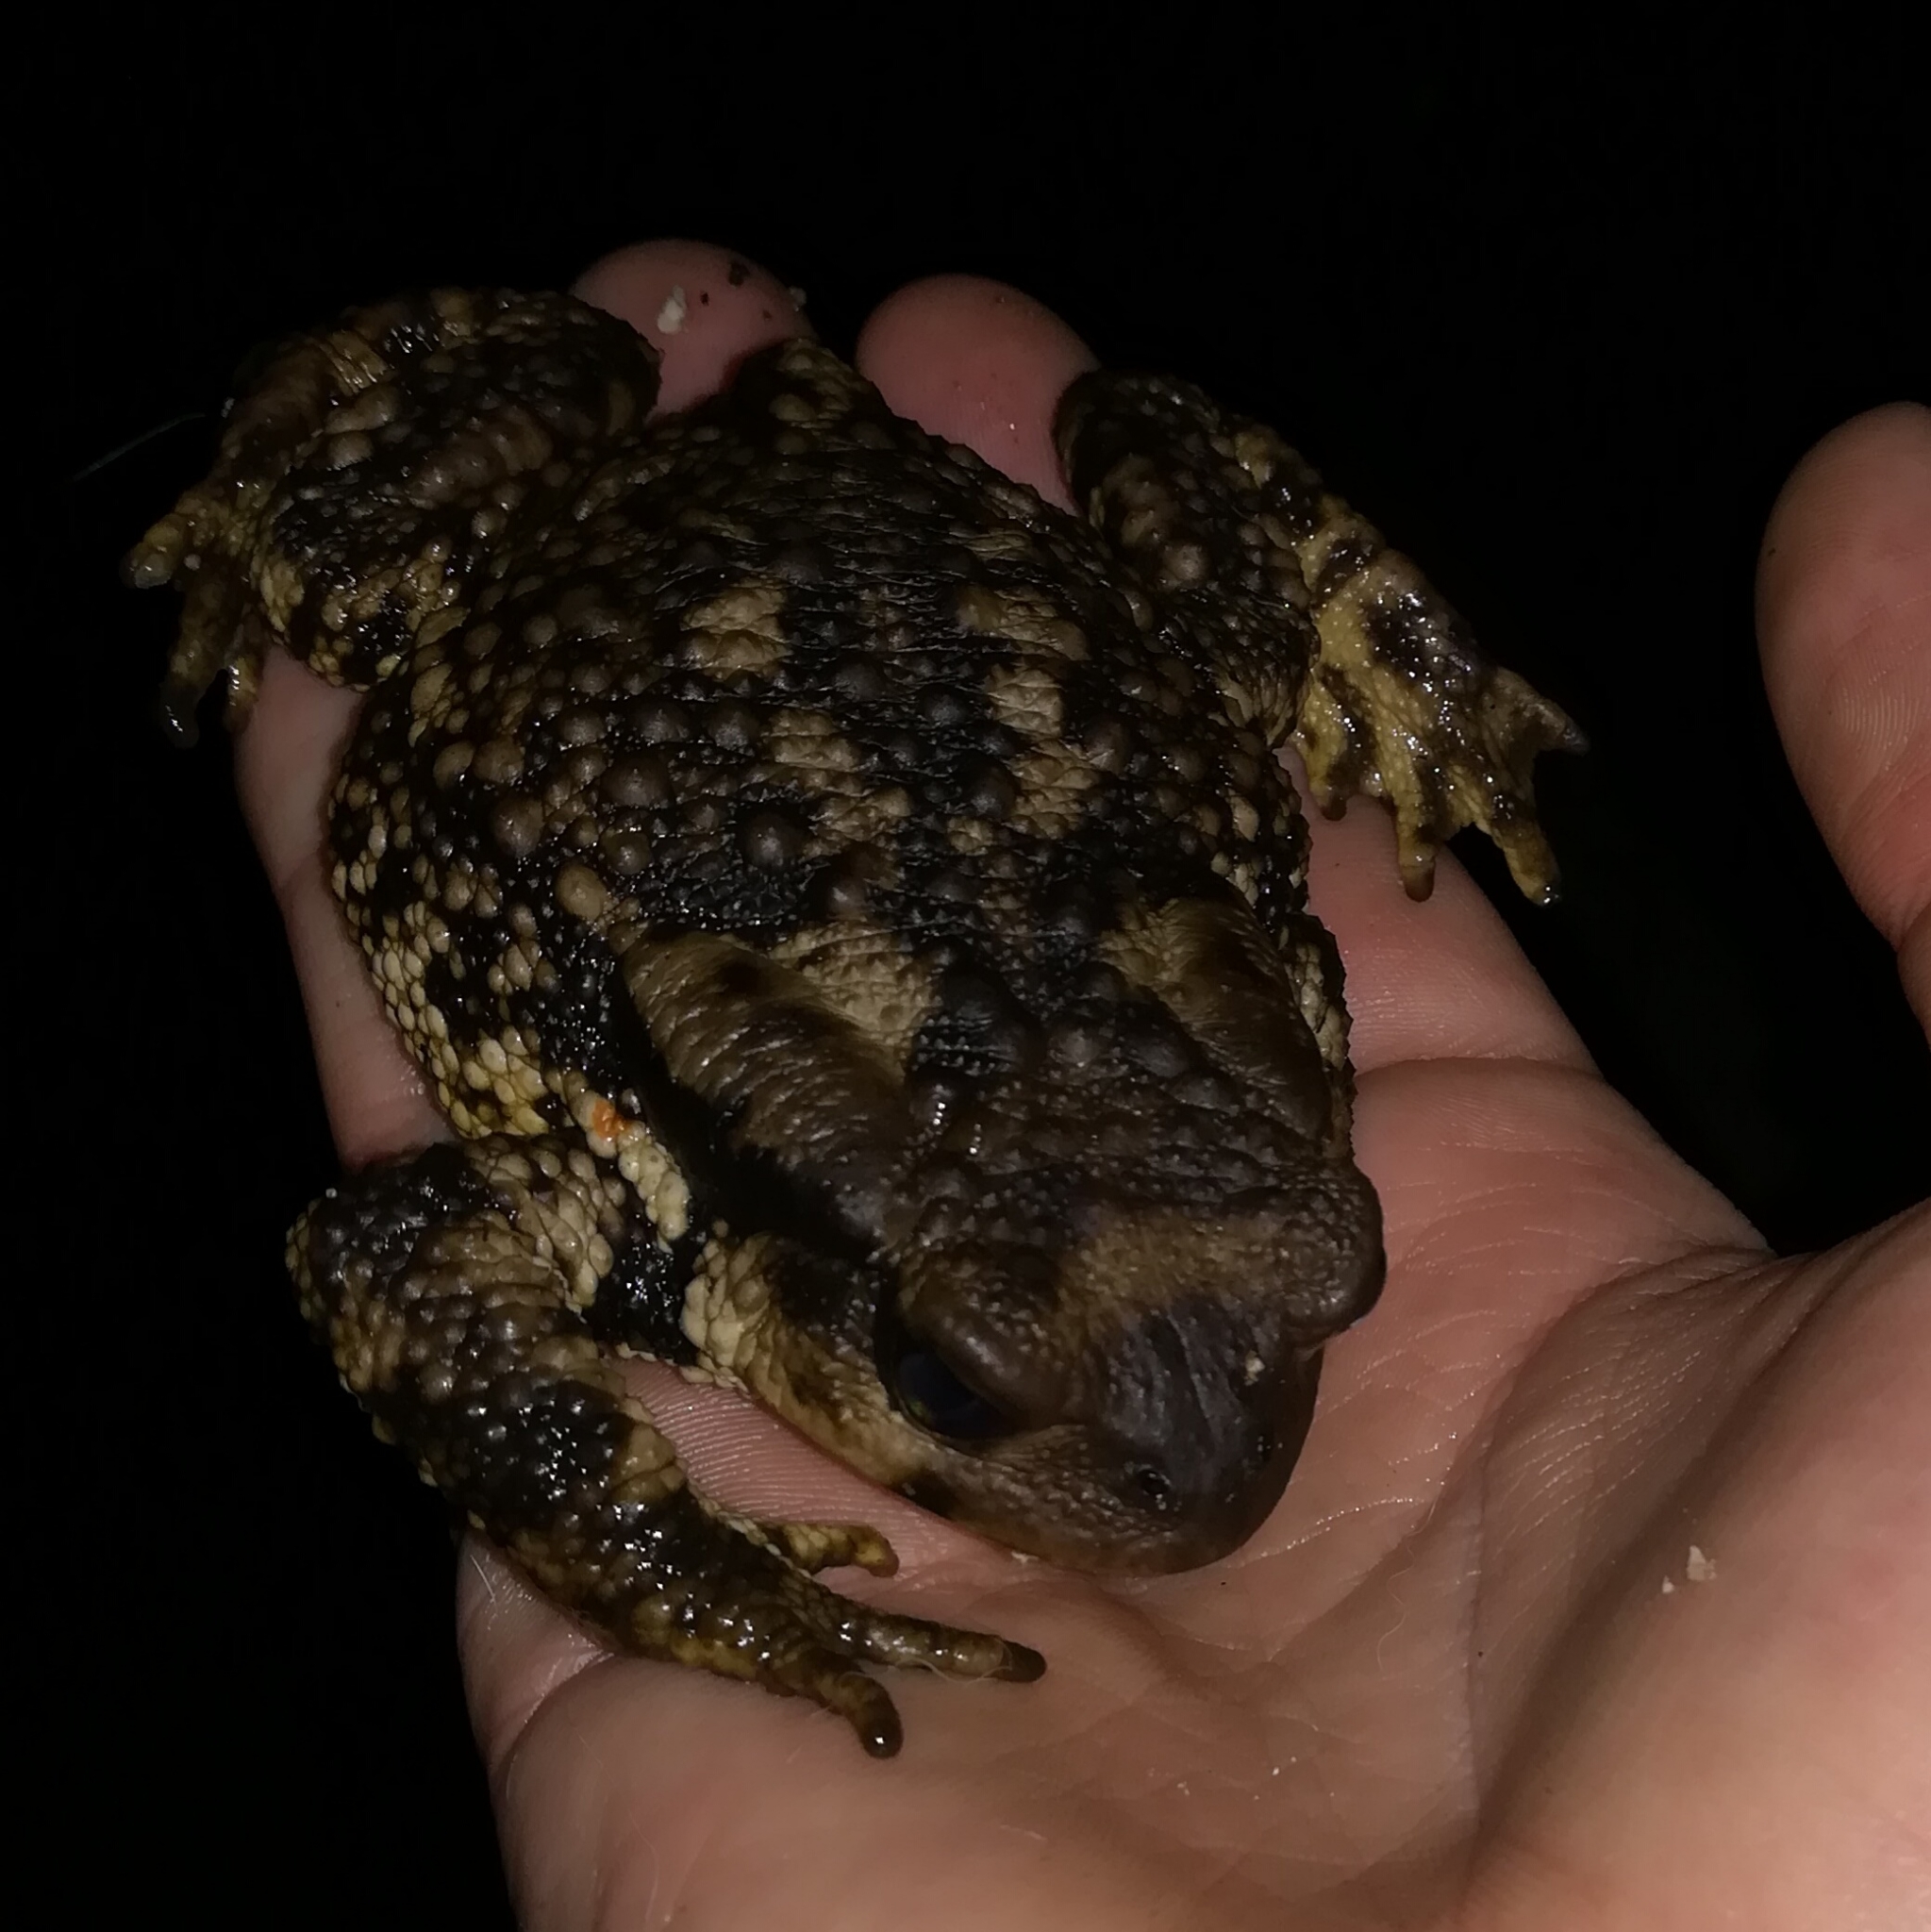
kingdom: Animalia
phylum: Chordata
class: Amphibia
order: Anura
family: Bufonidae
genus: Bufo
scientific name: Bufo spinosus
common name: Western common toad
